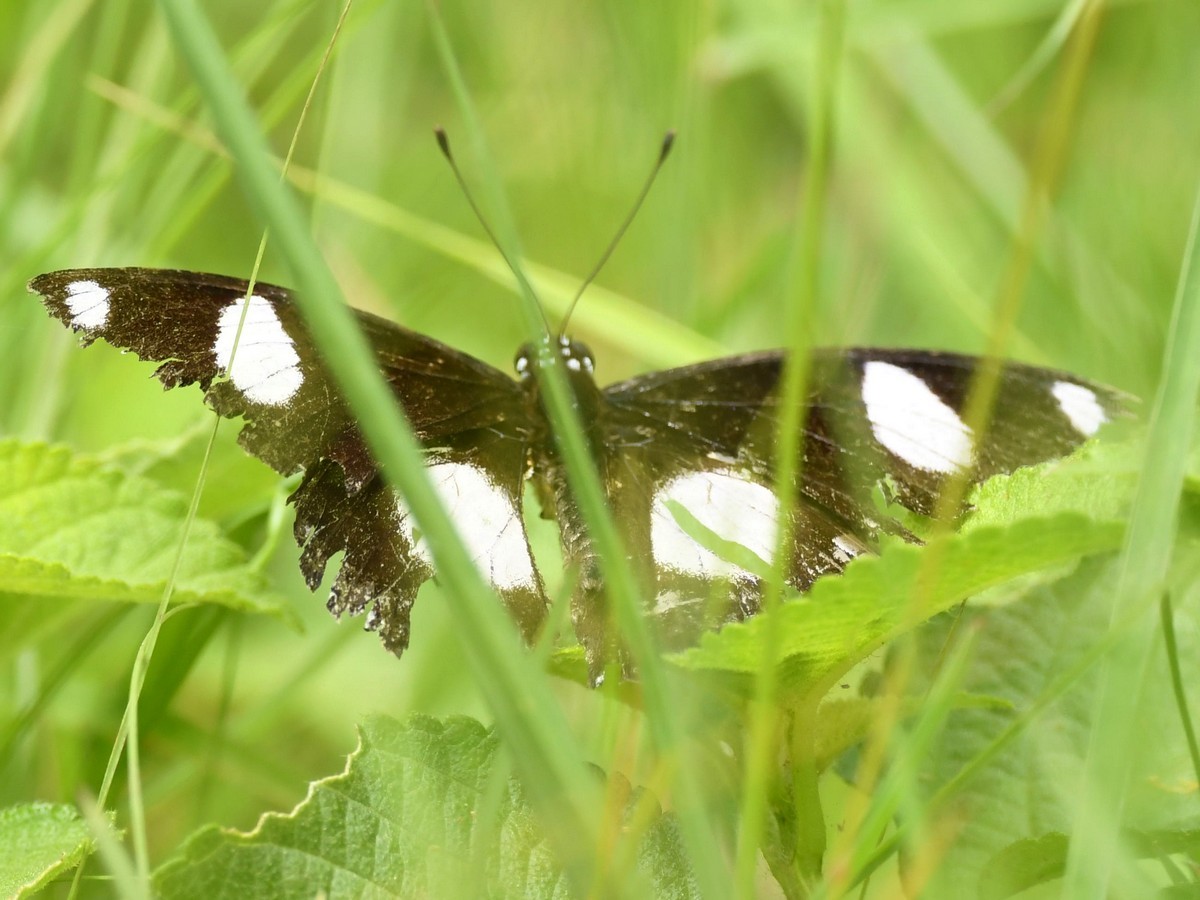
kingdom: Animalia
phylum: Arthropoda
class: Insecta
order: Lepidoptera
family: Nymphalidae
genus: Hypolimnas
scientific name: Hypolimnas misippus
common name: False plain tiger
